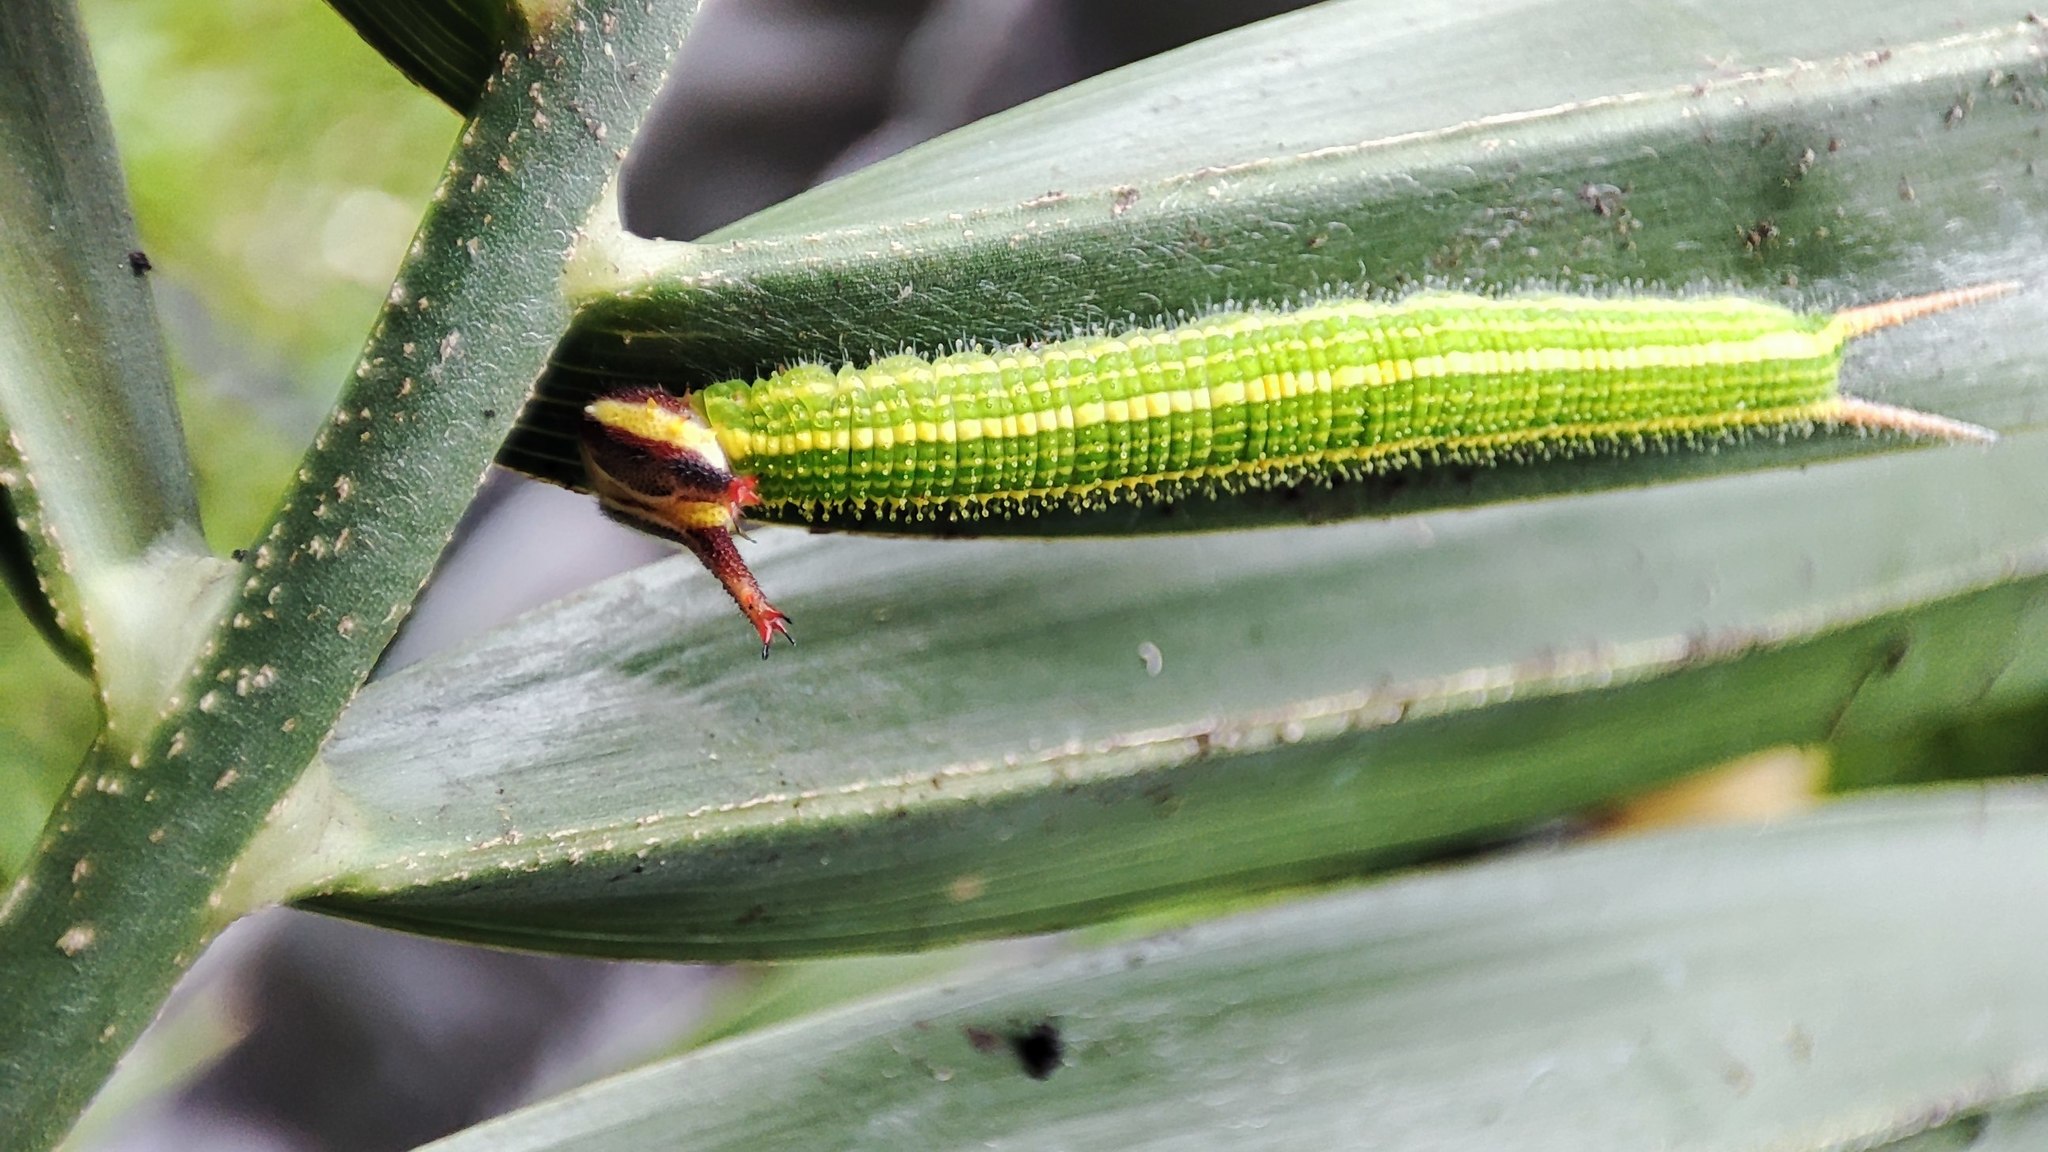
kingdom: Animalia
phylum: Arthropoda
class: Insecta
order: Lepidoptera
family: Nymphalidae
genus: Elymnias
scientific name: Elymnias hypermnestra
